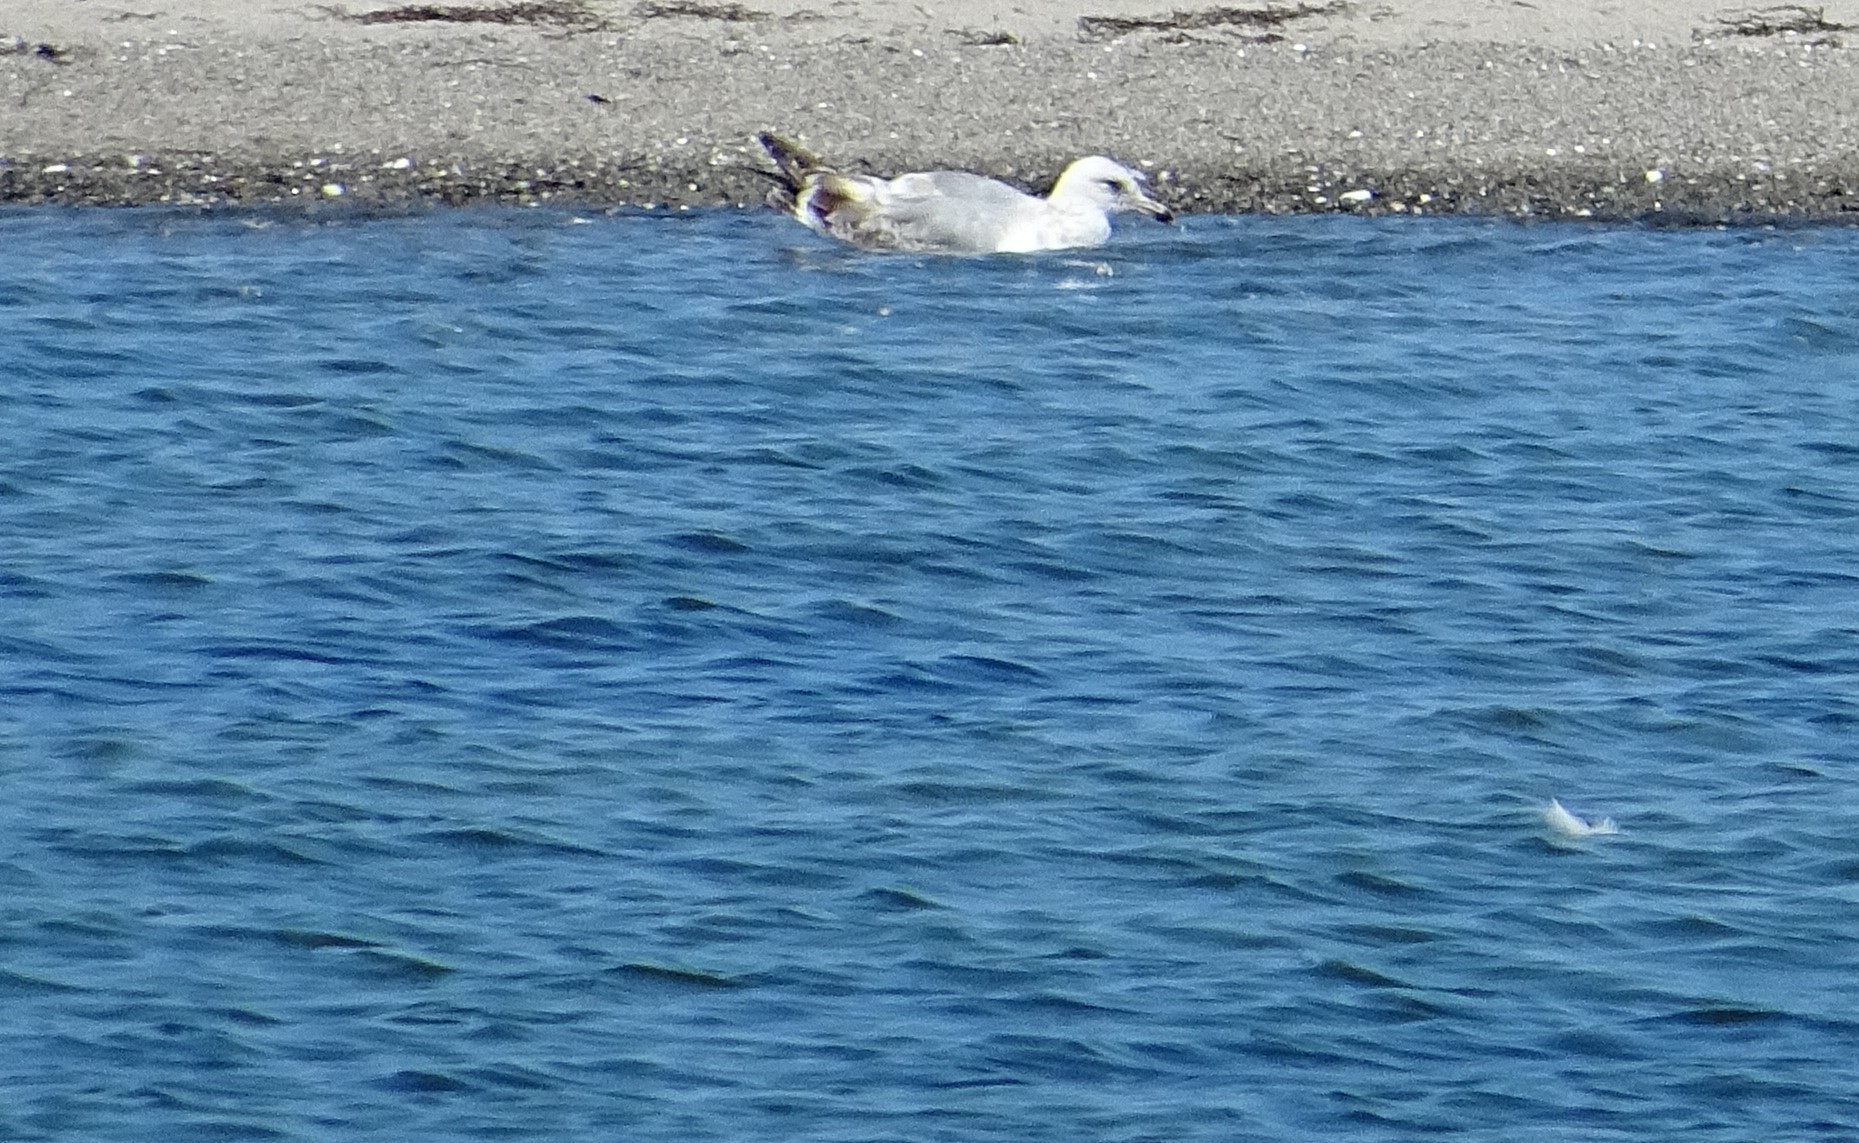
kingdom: Animalia
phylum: Chordata
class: Aves
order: Charadriiformes
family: Laridae
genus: Larus
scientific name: Larus argentatus
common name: Herring gull
